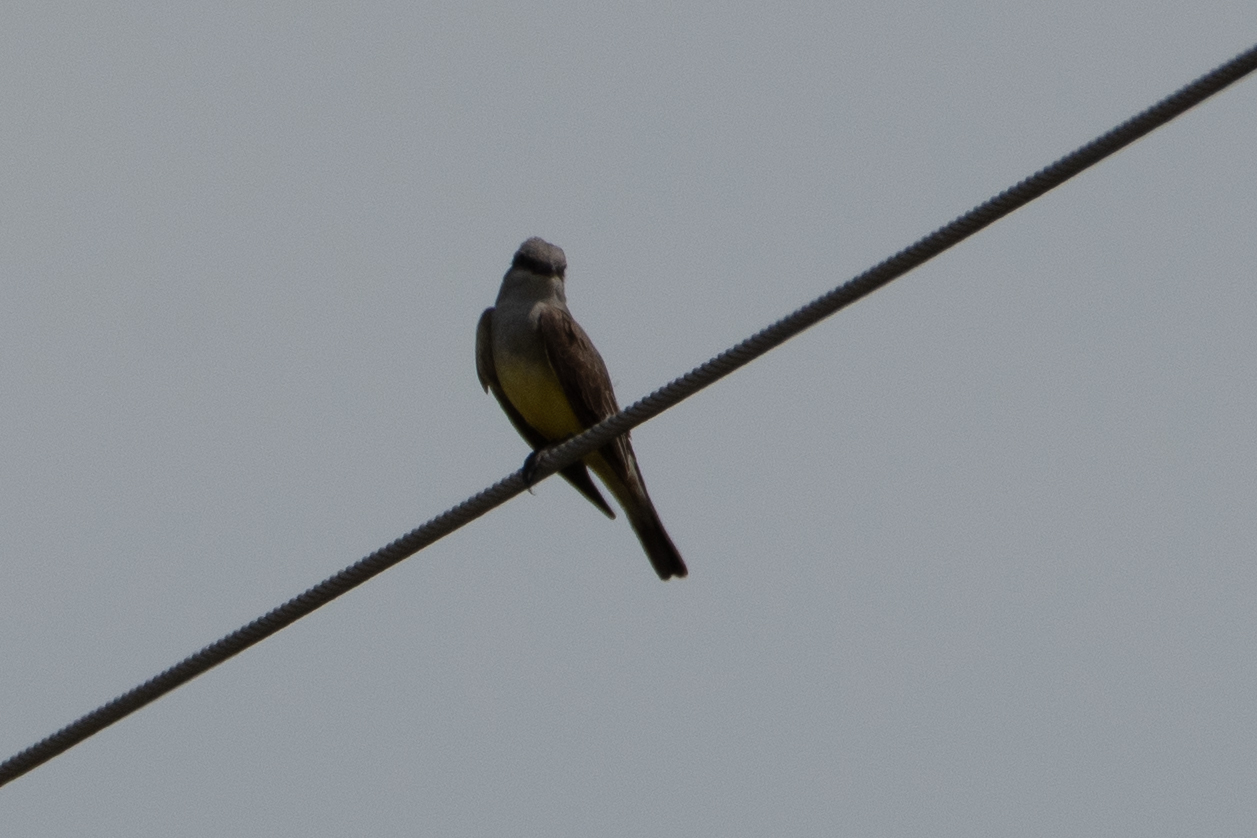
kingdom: Animalia
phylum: Chordata
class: Aves
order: Passeriformes
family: Tyrannidae
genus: Tyrannus
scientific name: Tyrannus verticalis
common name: Western kingbird
